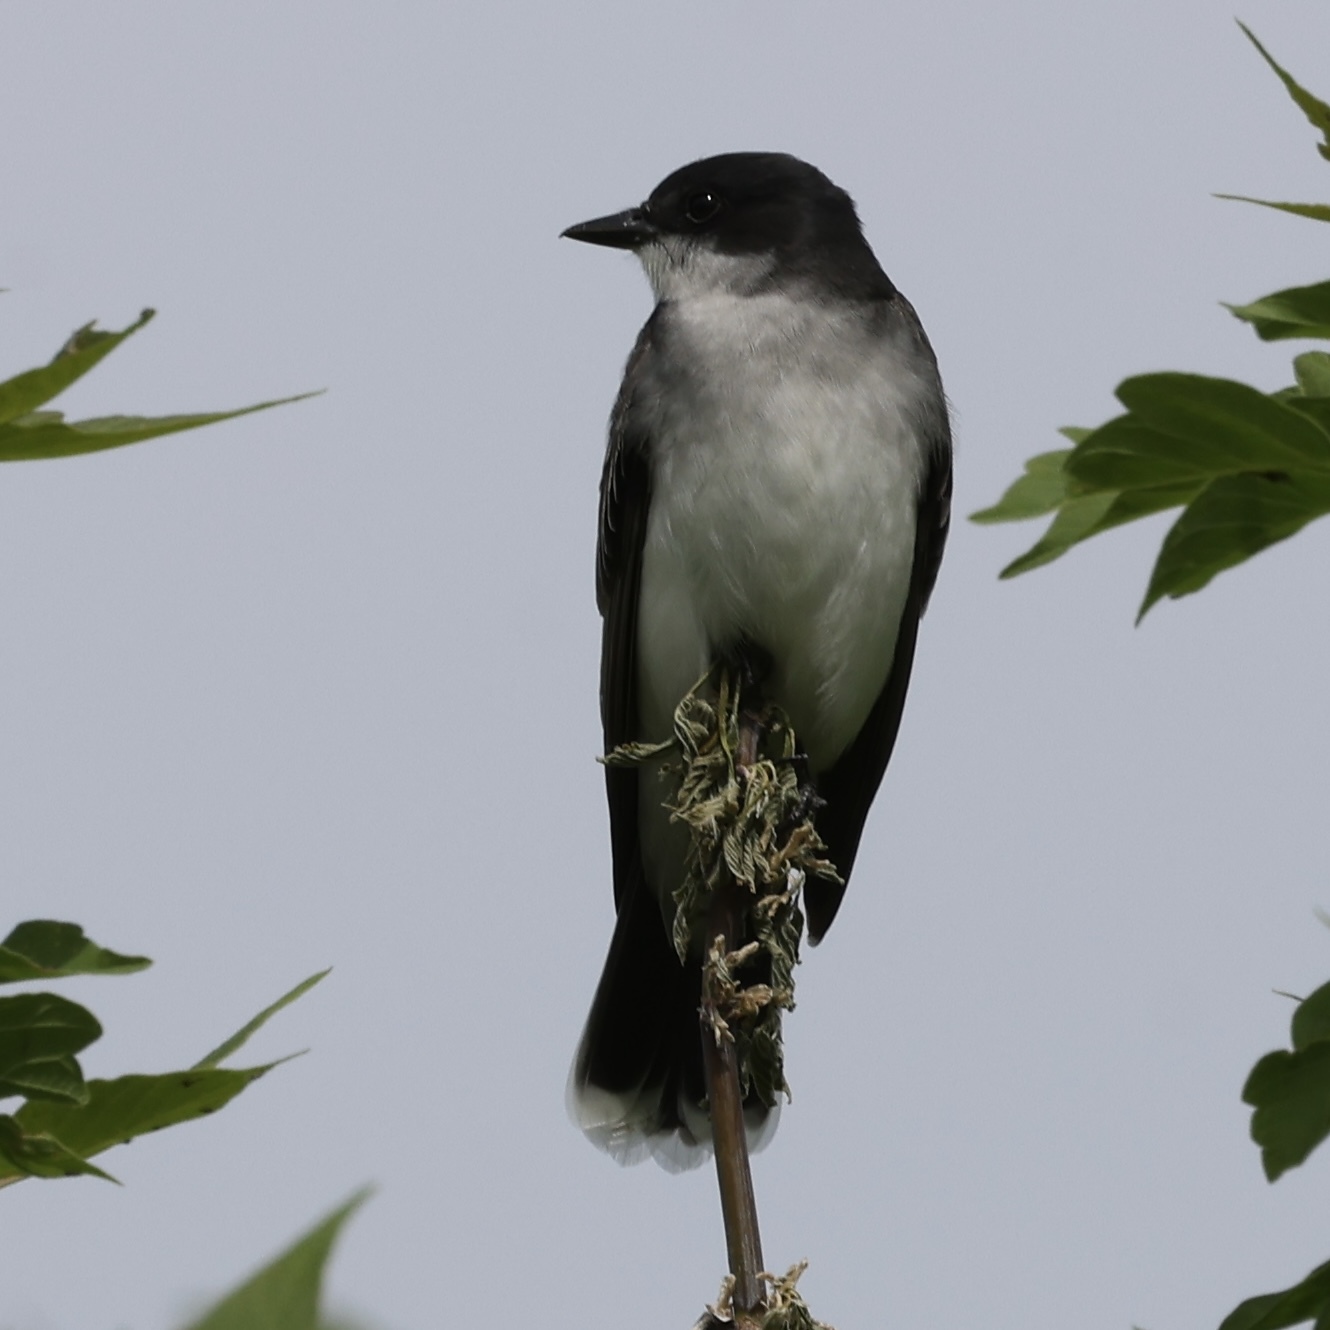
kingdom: Animalia
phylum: Chordata
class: Aves
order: Passeriformes
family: Tyrannidae
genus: Tyrannus
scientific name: Tyrannus tyrannus
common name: Eastern kingbird
